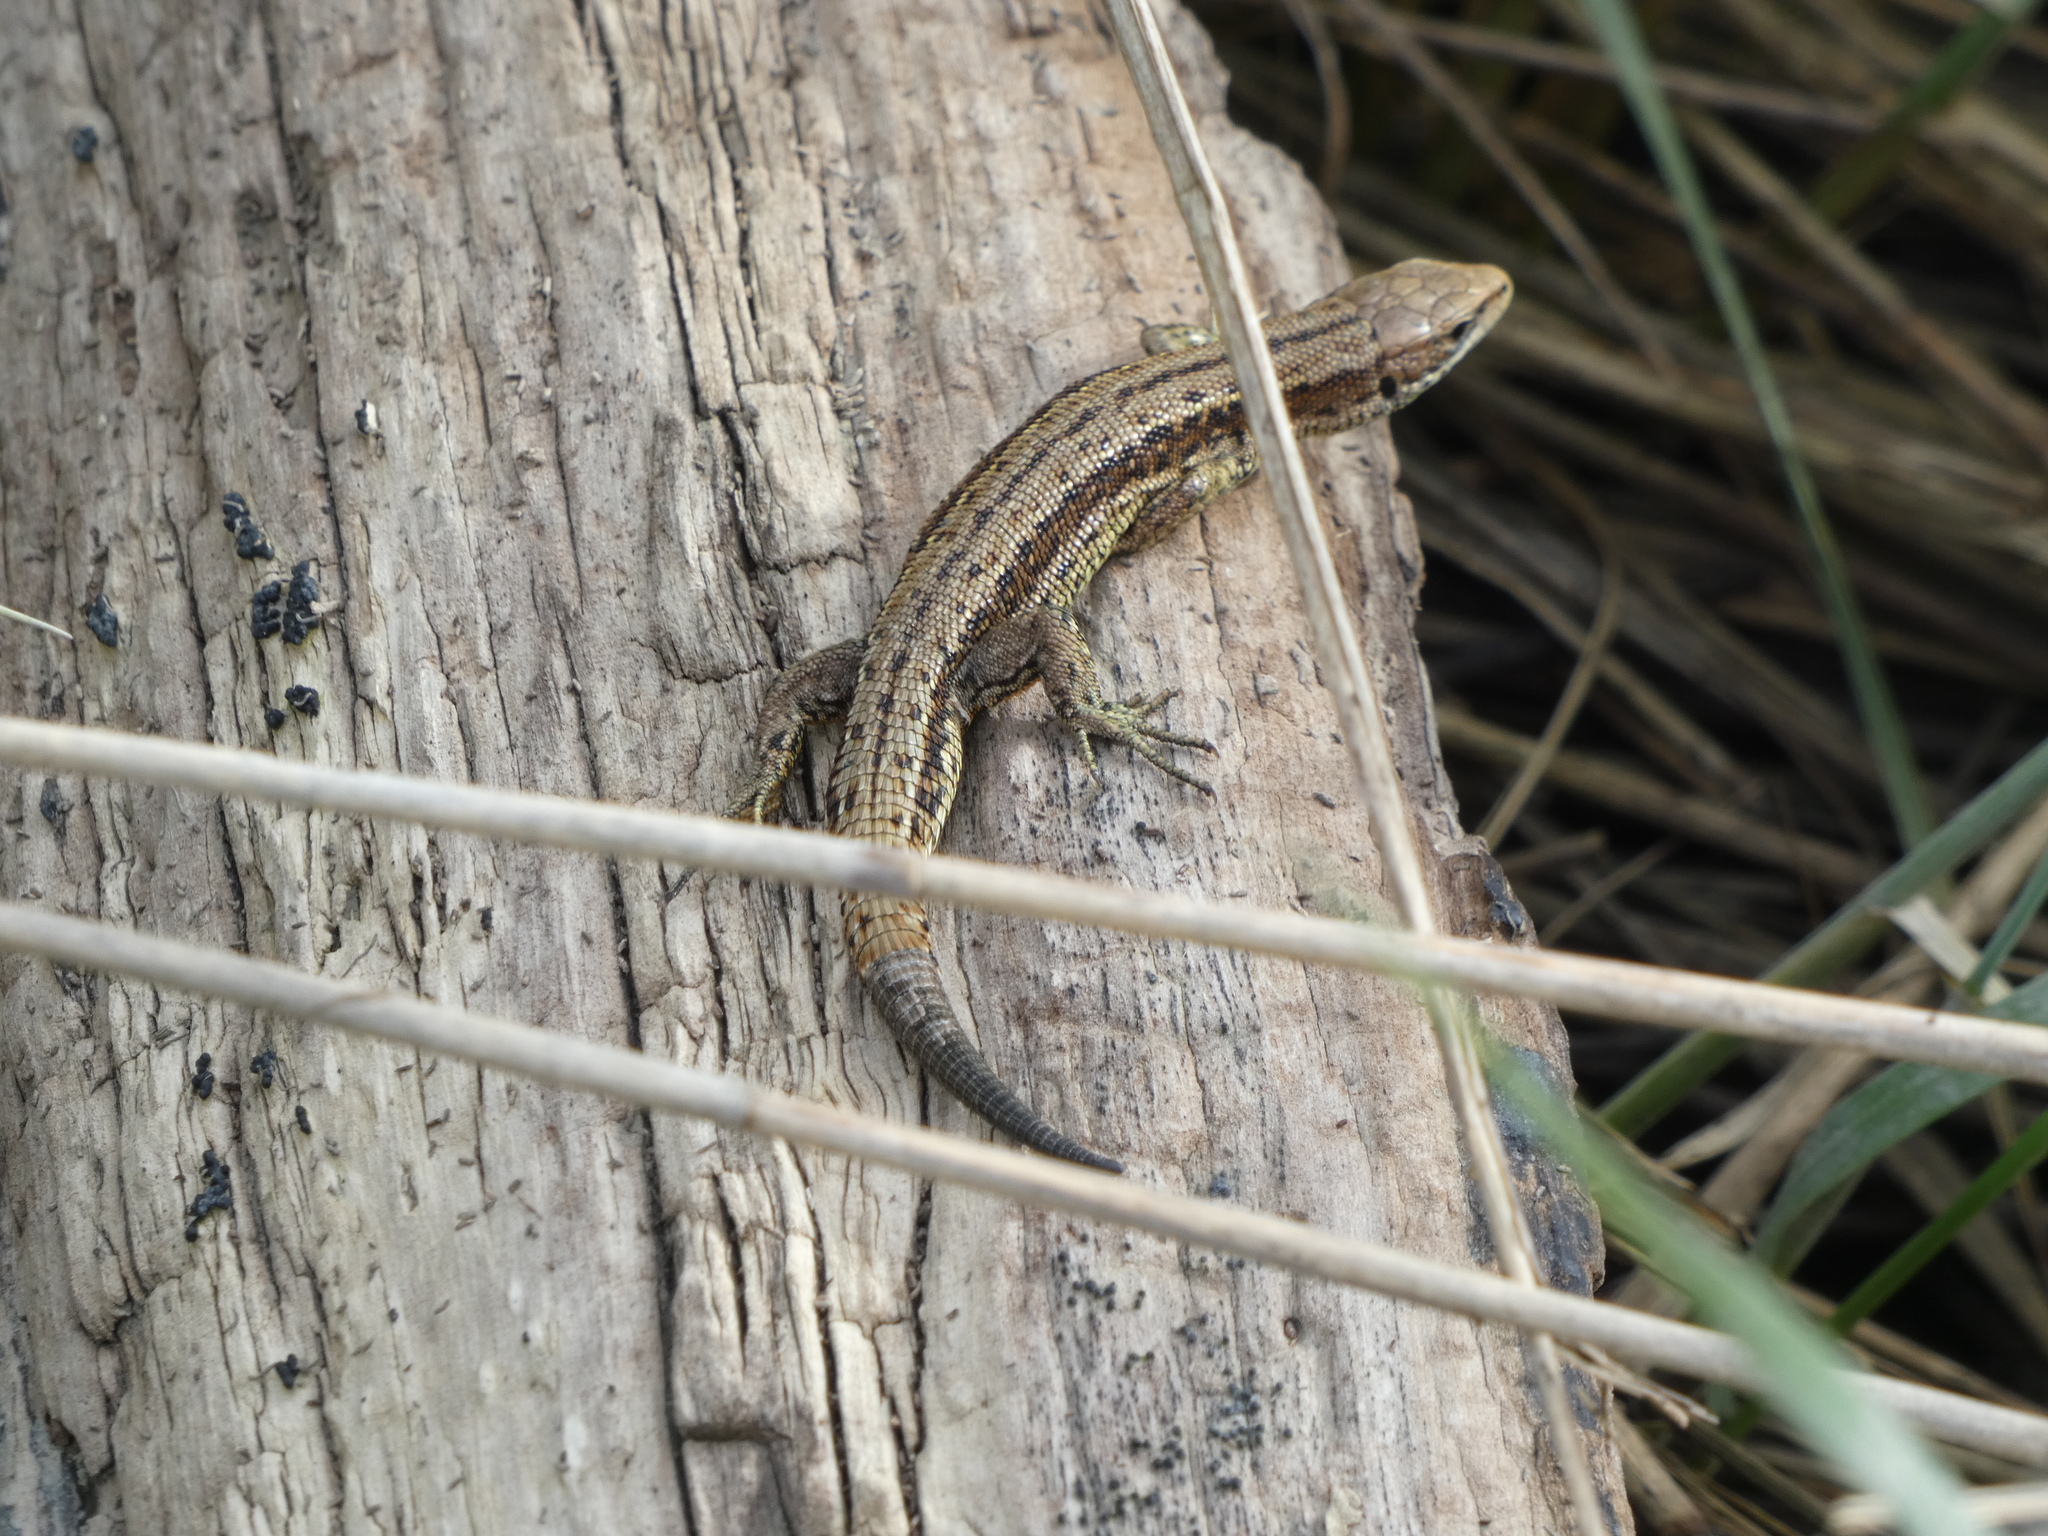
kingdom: Animalia
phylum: Chordata
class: Squamata
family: Lacertidae
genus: Zootoca
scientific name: Zootoca vivipara
